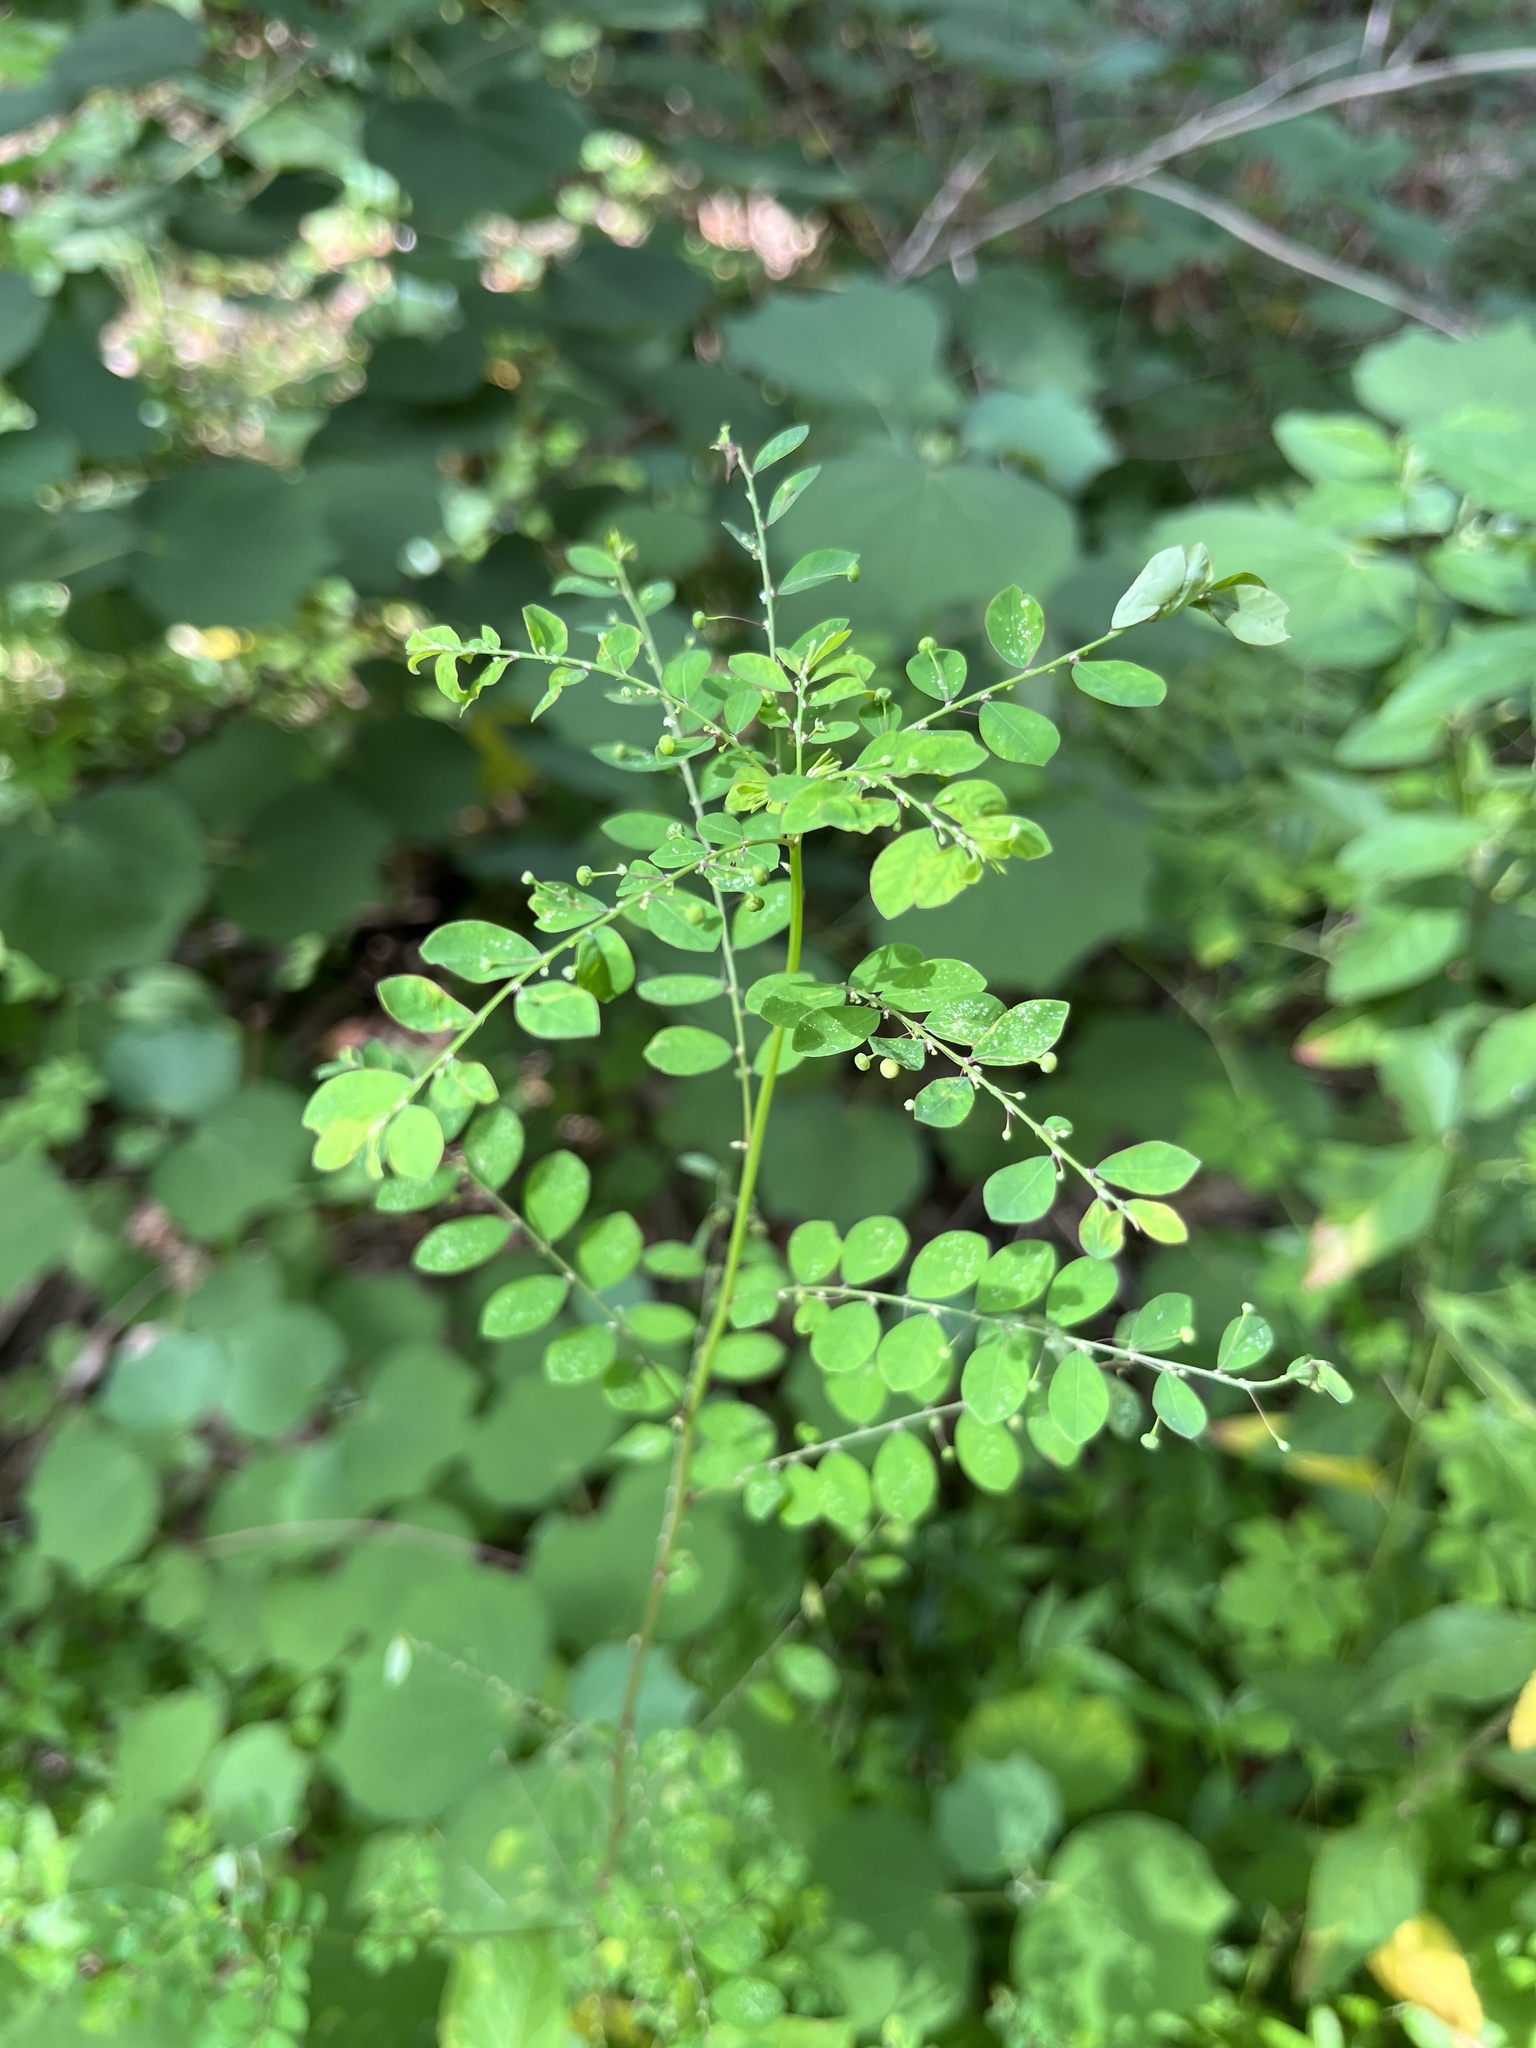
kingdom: Plantae
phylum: Tracheophyta
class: Magnoliopsida
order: Malpighiales
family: Phyllanthaceae
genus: Phyllanthus
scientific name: Phyllanthus tenellus
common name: Mascarene island leaf-flower
